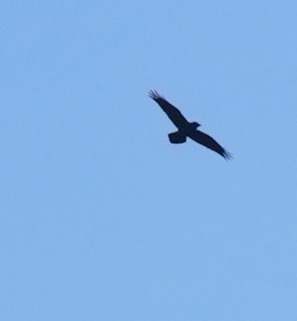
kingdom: Animalia
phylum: Chordata
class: Aves
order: Passeriformes
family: Corvidae
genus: Corvus
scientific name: Corvus corax
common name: Common raven
